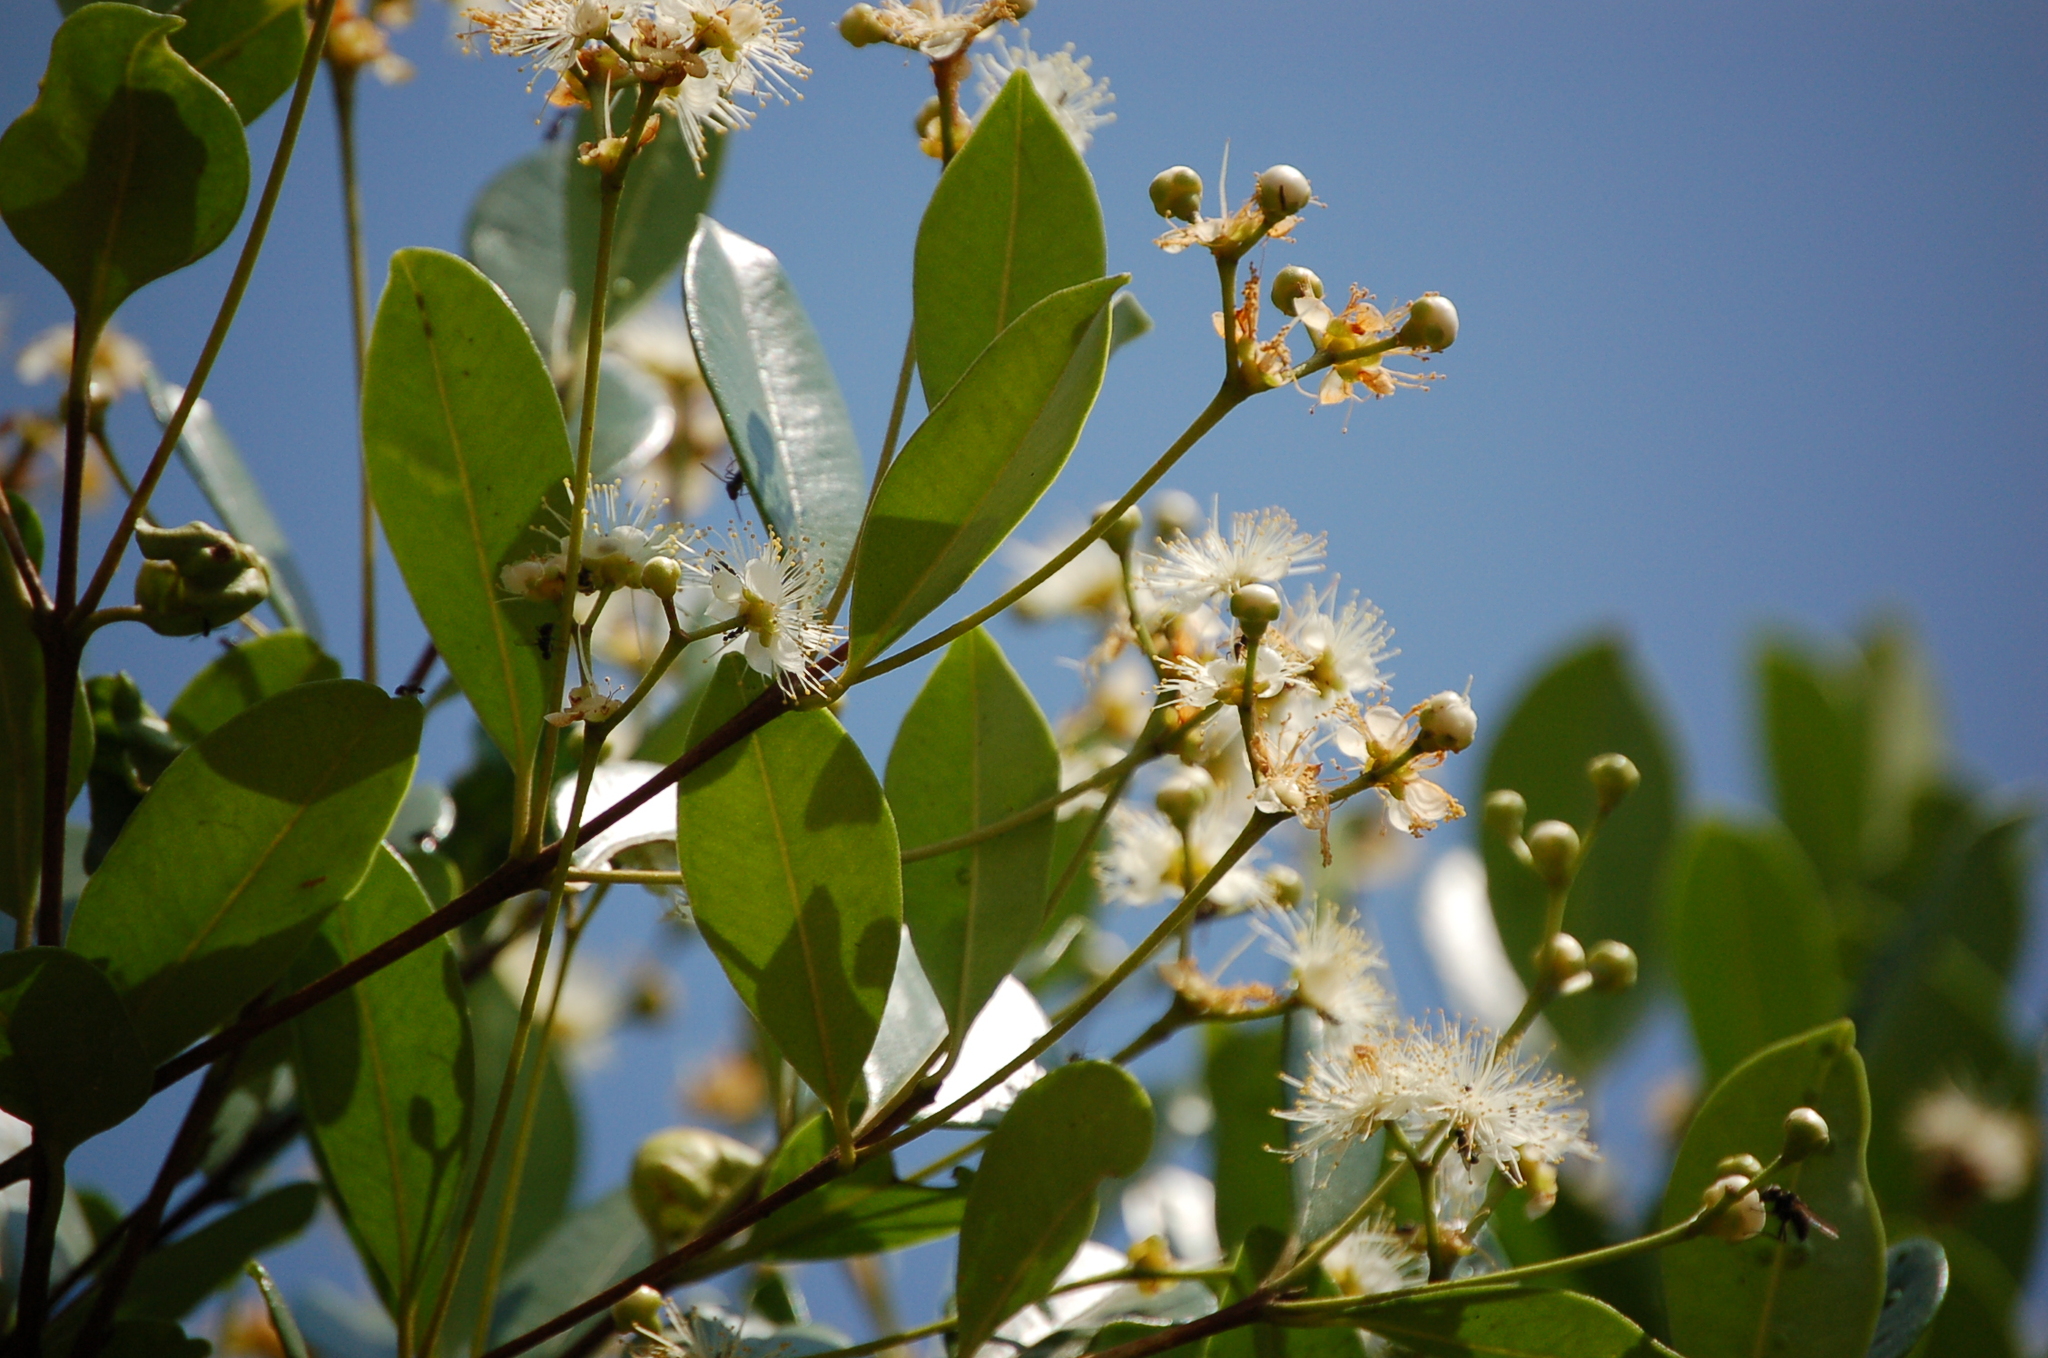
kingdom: Plantae
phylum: Tracheophyta
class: Magnoliopsida
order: Myrtales
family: Myrtaceae
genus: Eugenia
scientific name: Eugenia acapulcensis
